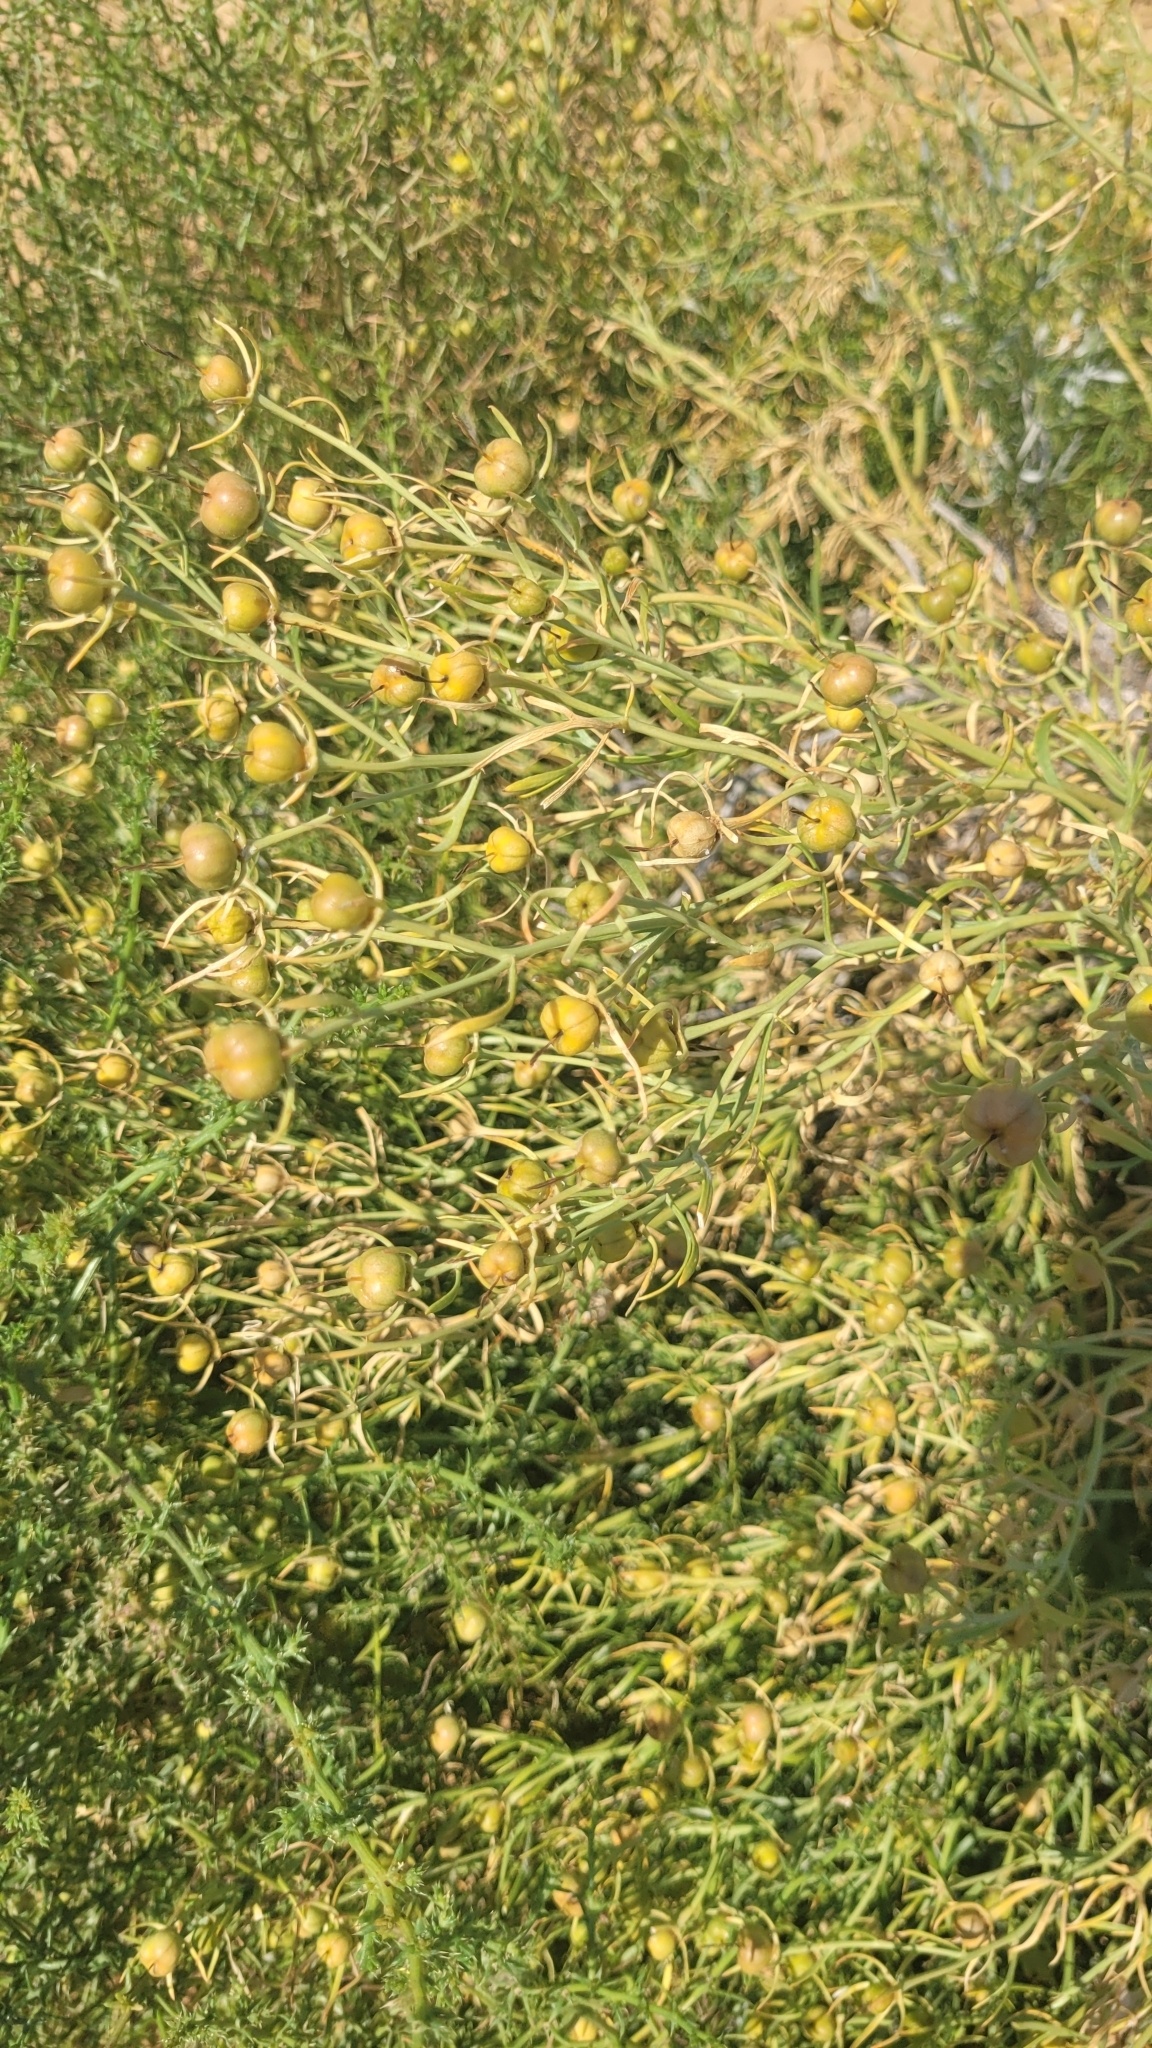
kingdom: Plantae
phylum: Tracheophyta
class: Magnoliopsida
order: Sapindales
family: Tetradiclidaceae
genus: Peganum
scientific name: Peganum harmala
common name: Harmal peganum
